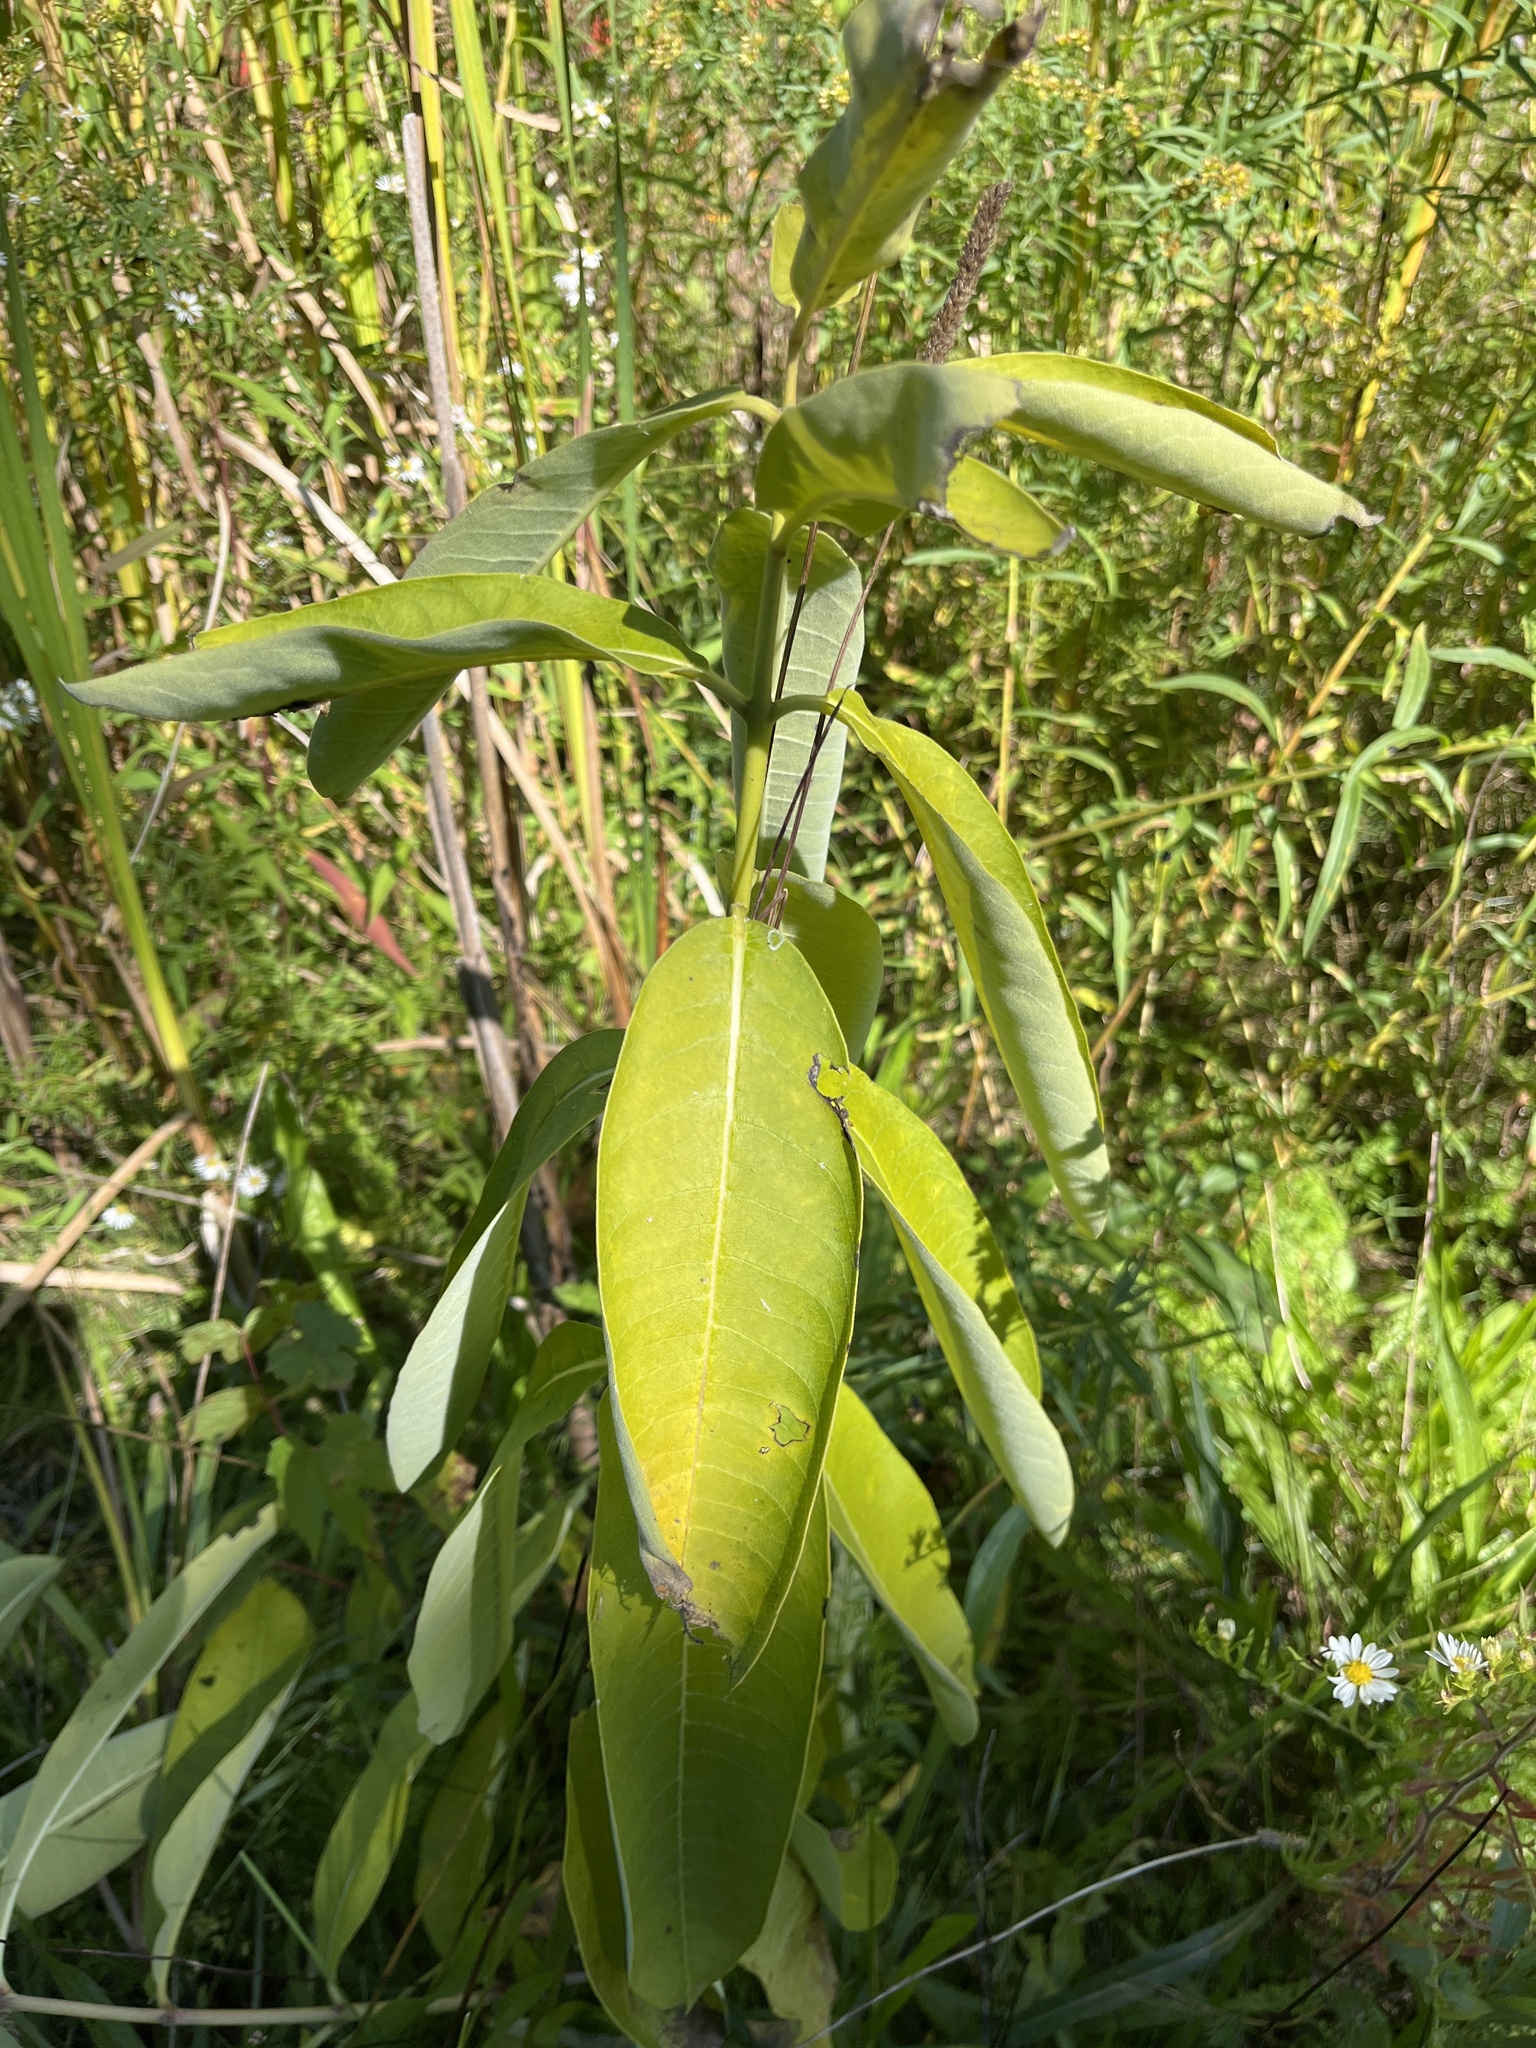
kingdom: Plantae
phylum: Tracheophyta
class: Magnoliopsida
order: Gentianales
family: Apocynaceae
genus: Asclepias
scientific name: Asclepias syriaca
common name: Common milkweed
